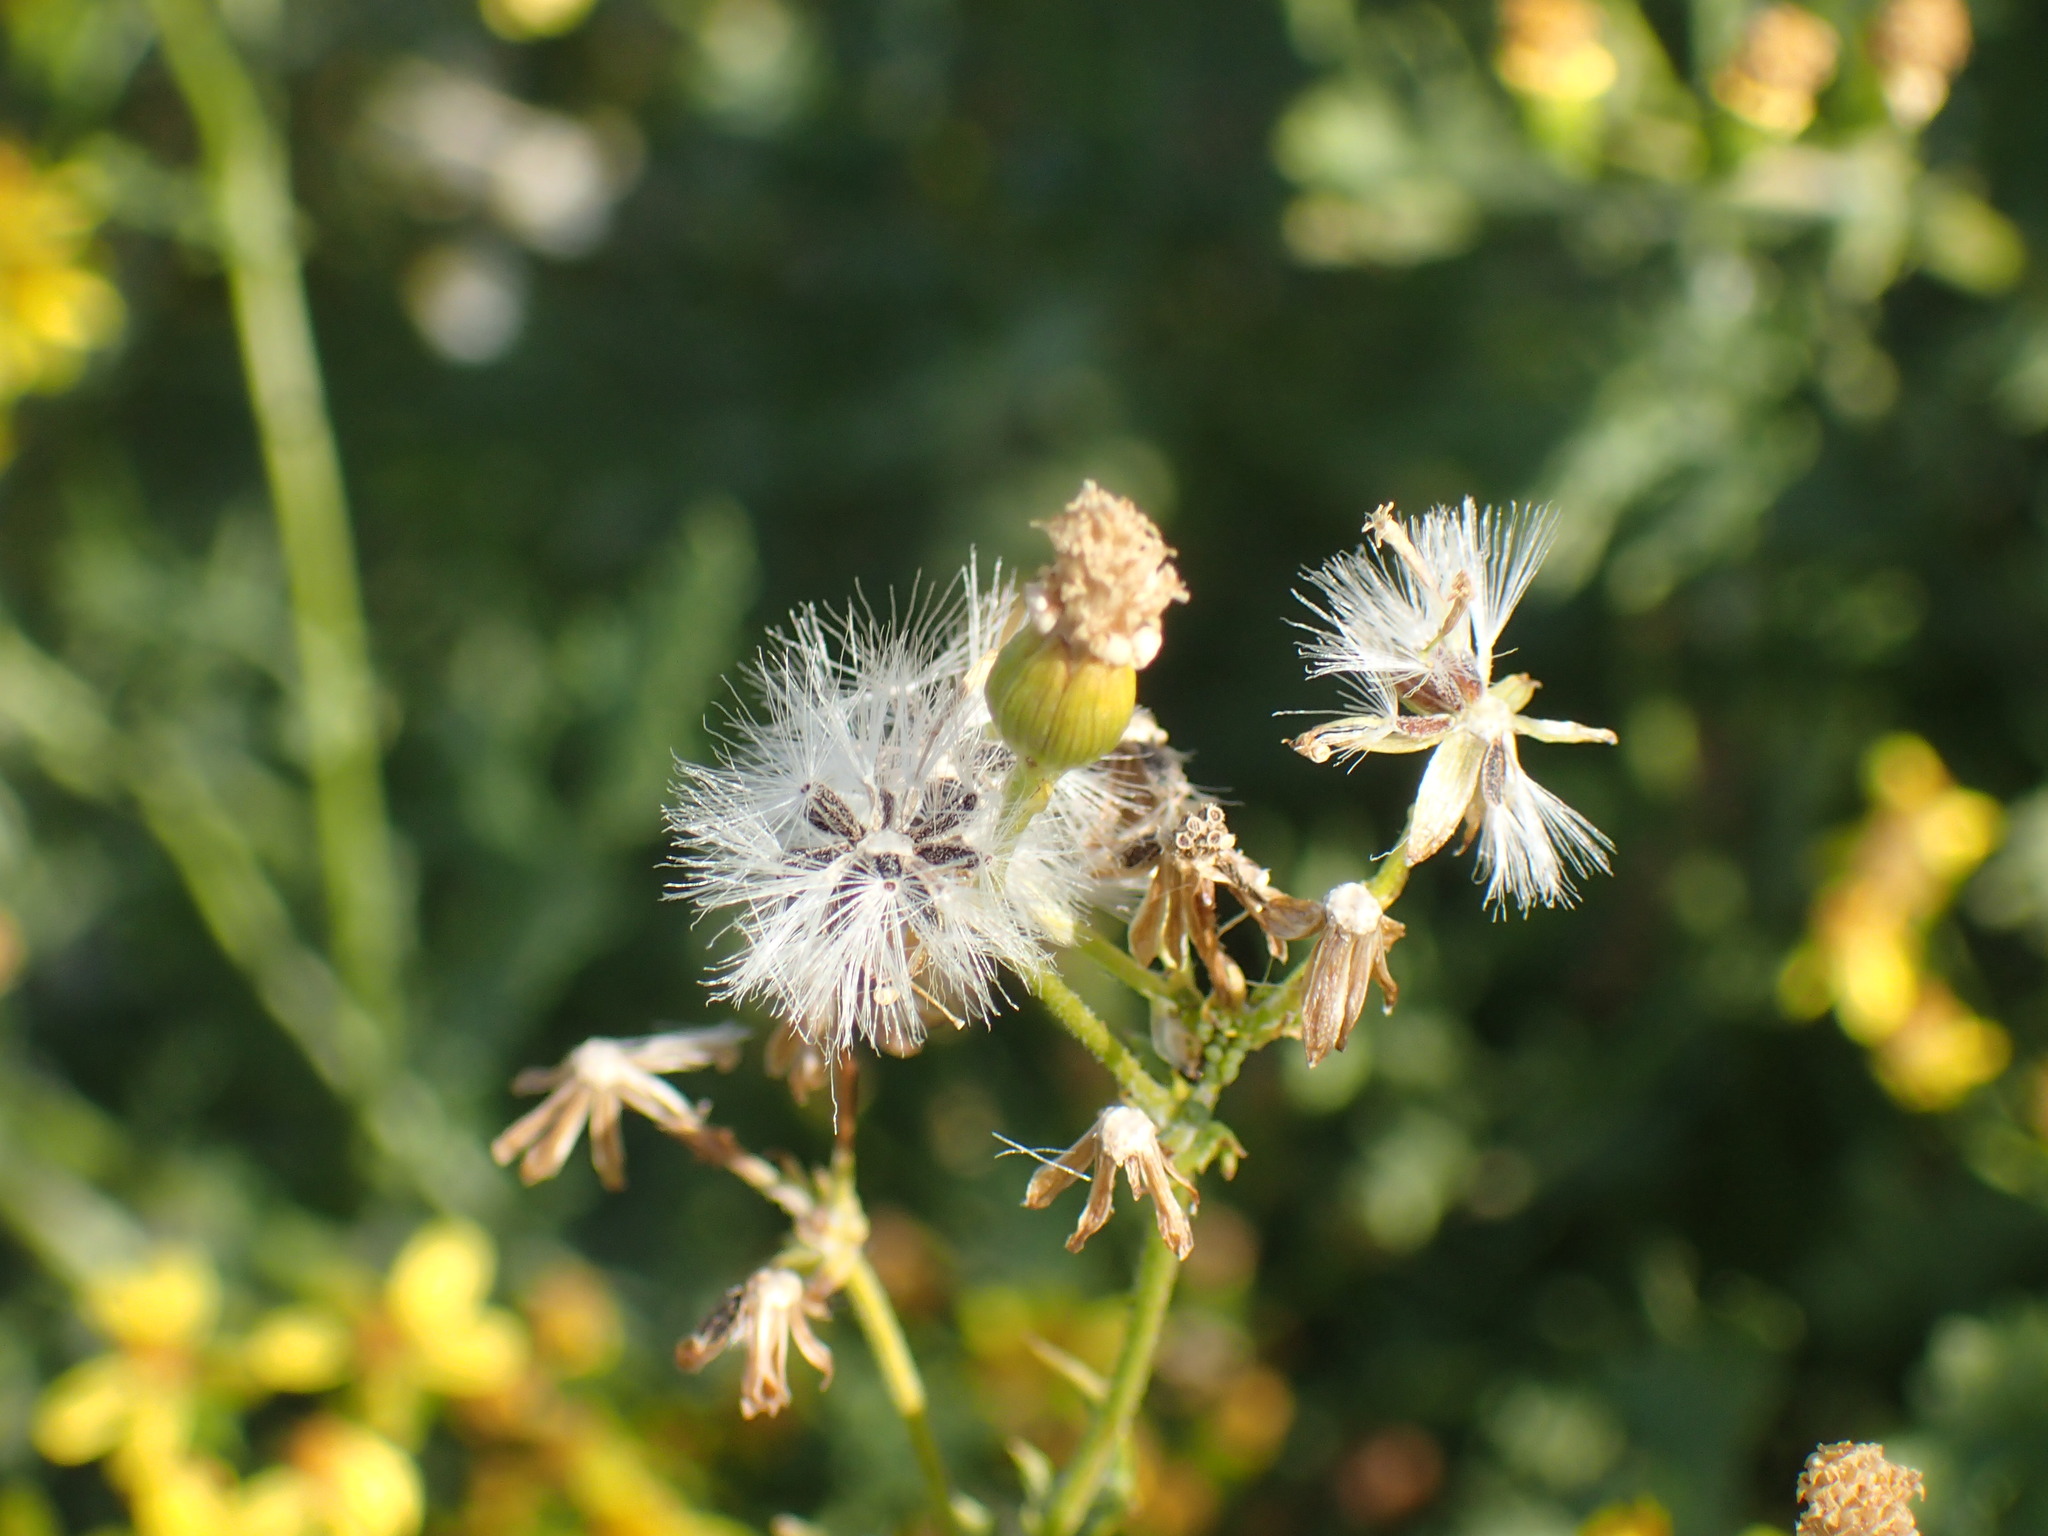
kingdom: Plantae
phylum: Tracheophyta
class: Magnoliopsida
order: Asterales
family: Asteraceae
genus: Cineraria
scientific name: Cineraria lyratiformis
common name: Cineraria
